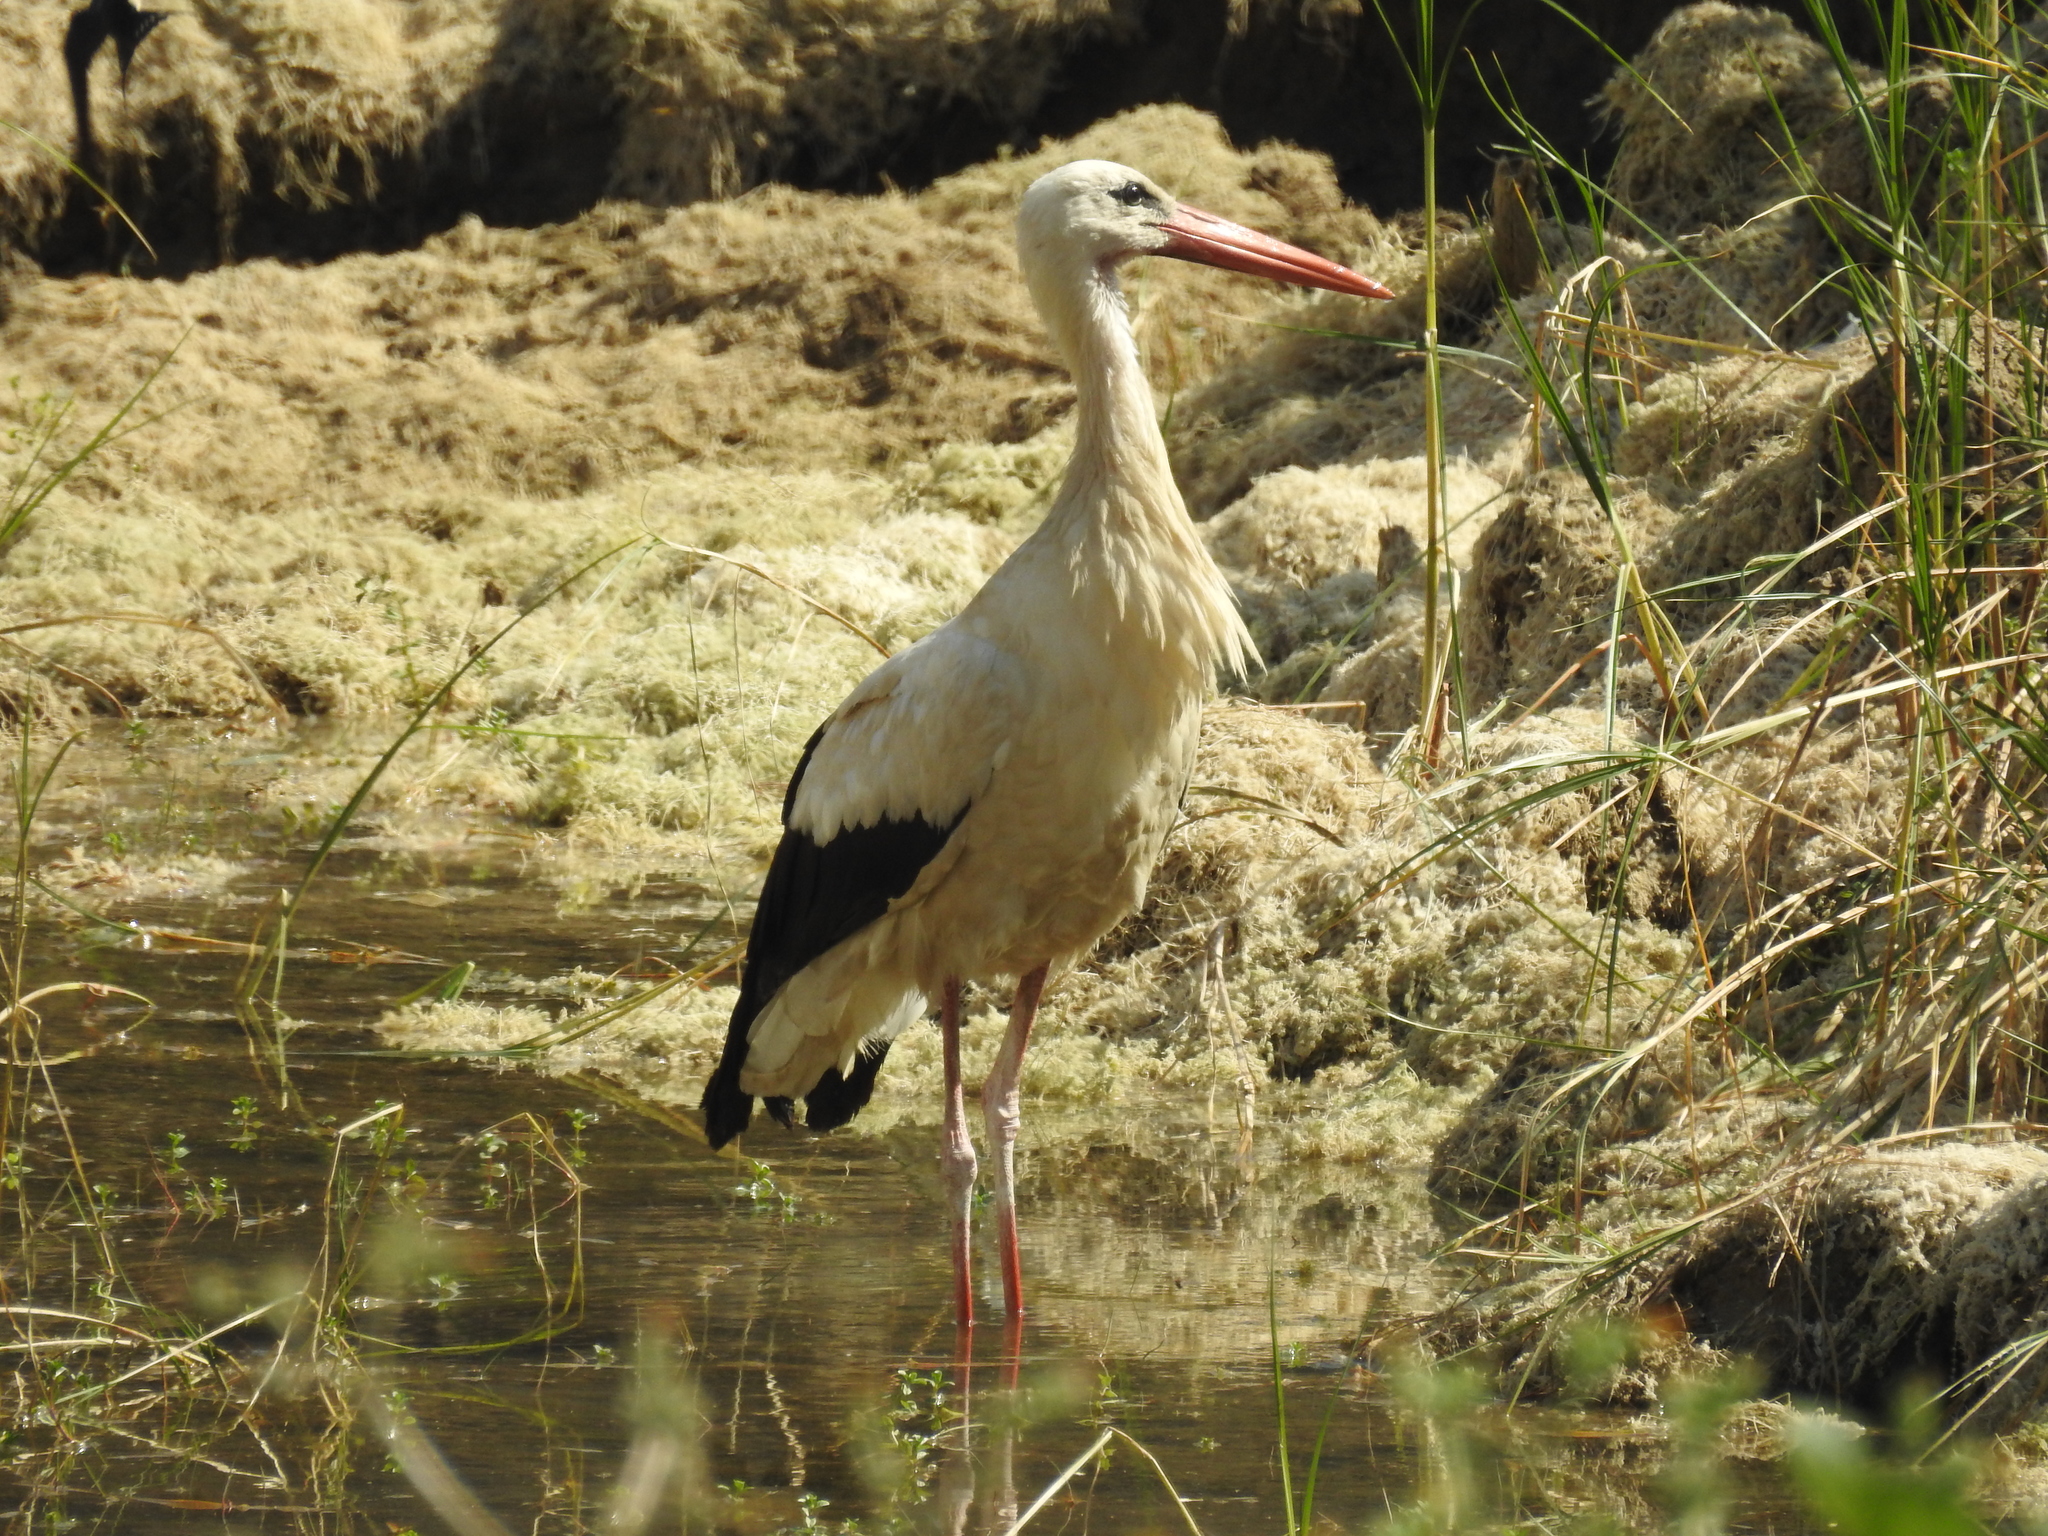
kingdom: Animalia
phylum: Chordata
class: Aves
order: Ciconiiformes
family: Ciconiidae
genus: Ciconia
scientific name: Ciconia ciconia
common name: White stork
